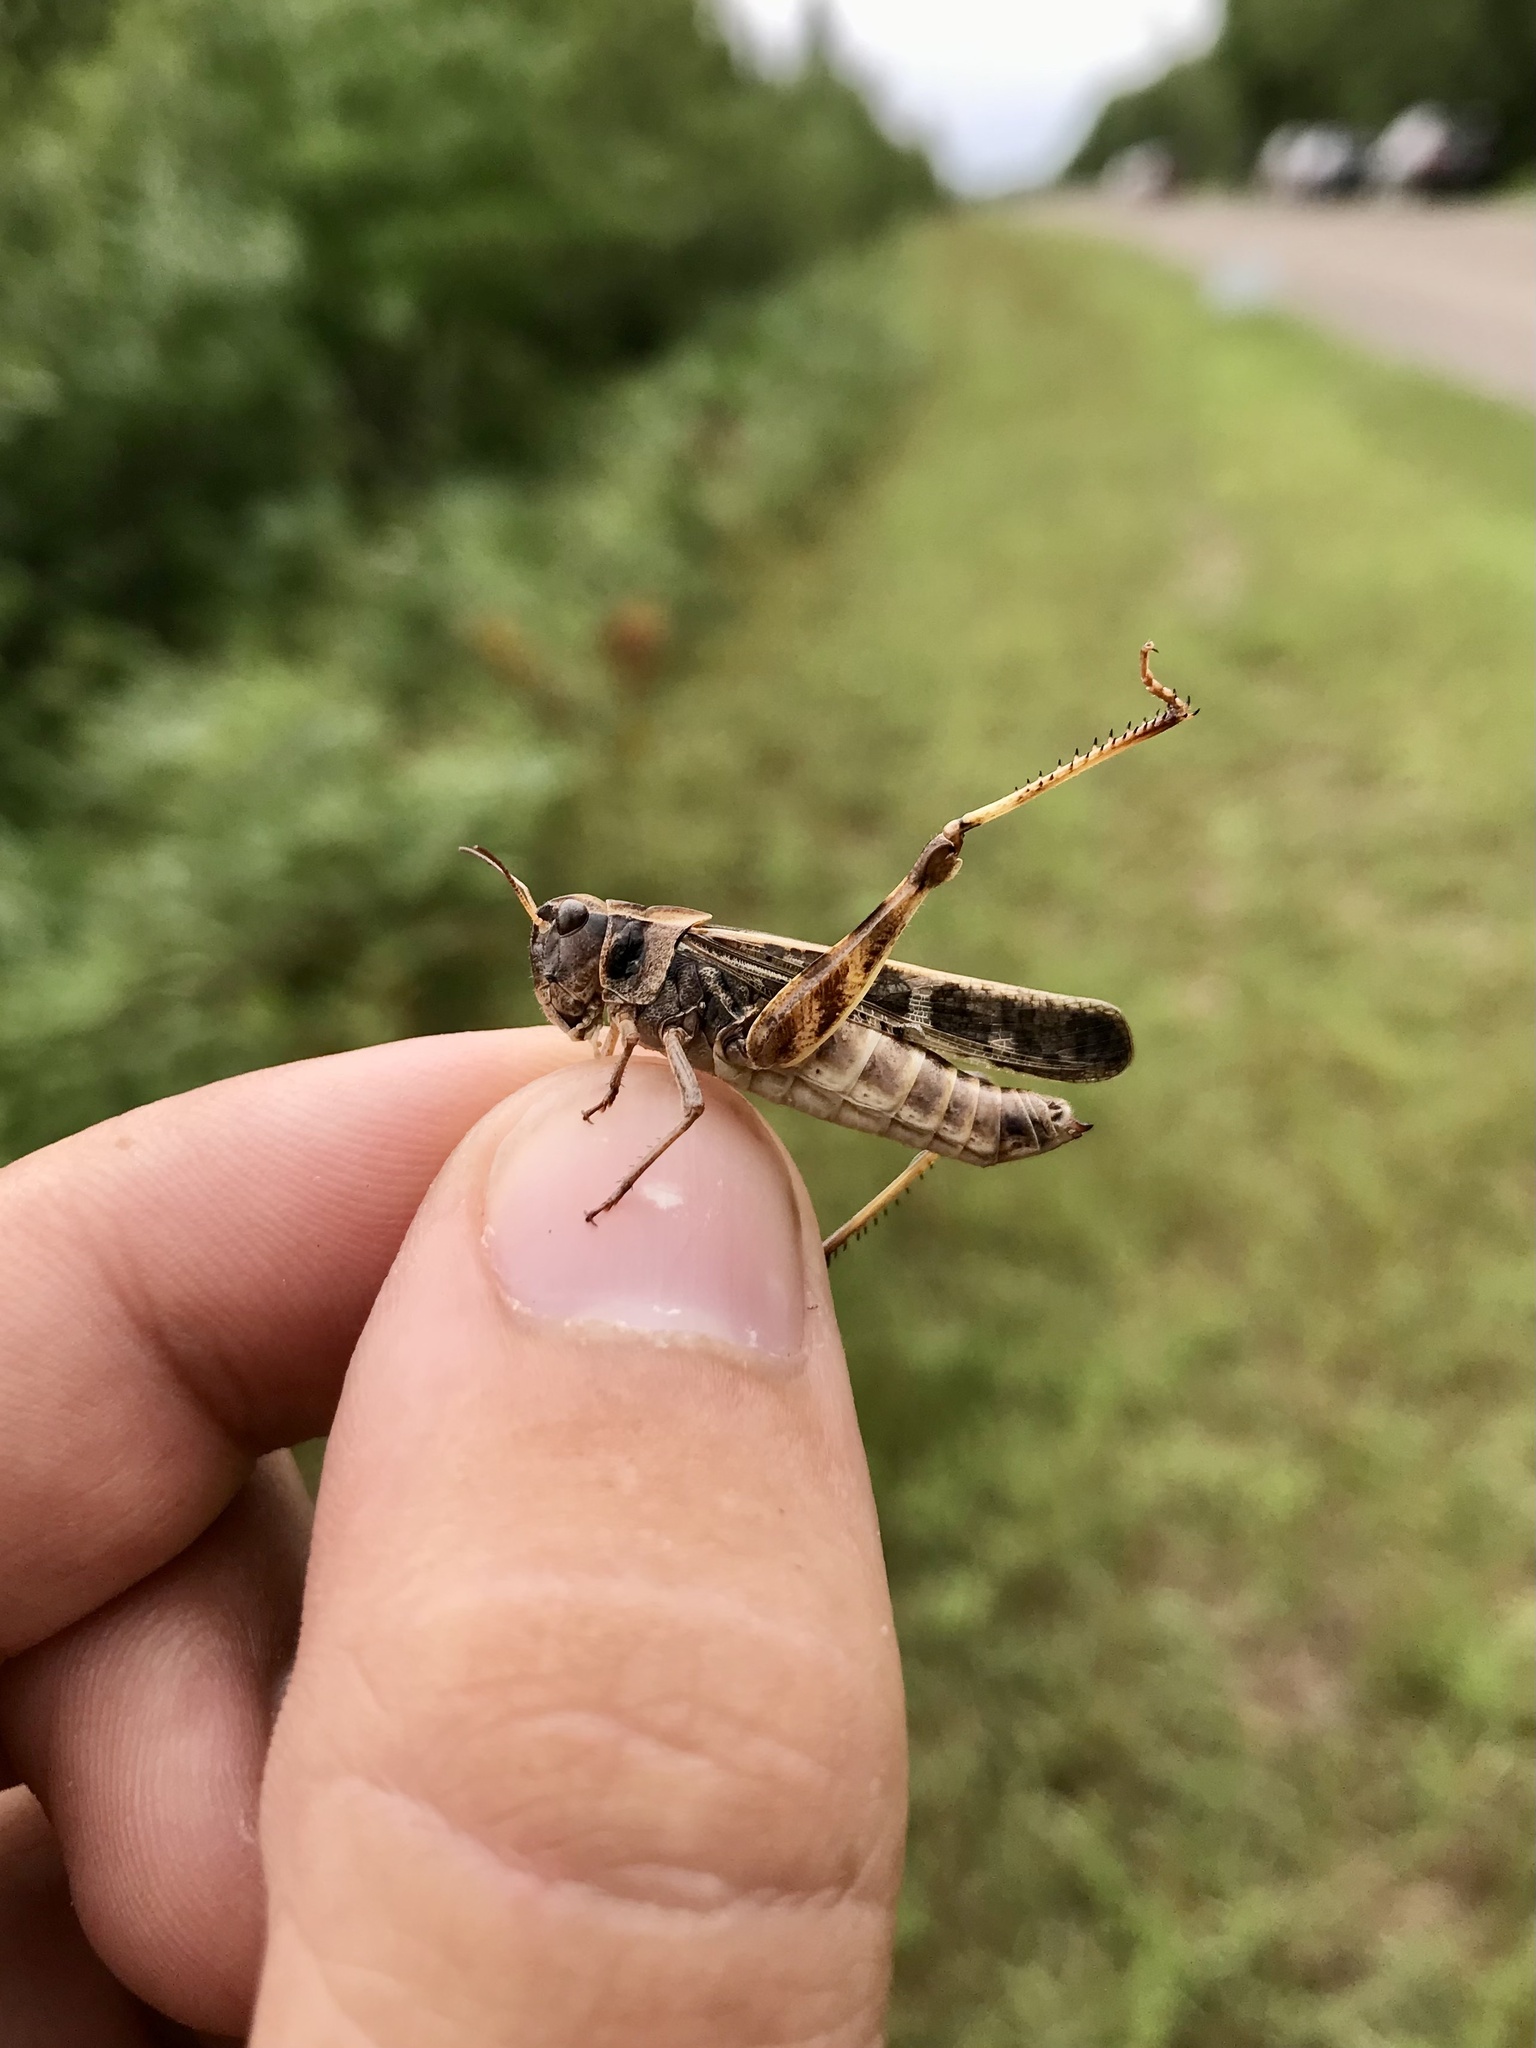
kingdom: Animalia
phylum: Arthropoda
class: Insecta
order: Orthoptera
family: Acrididae
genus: Camnula
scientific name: Camnula pellucida
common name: Clear-winged grasshopper
